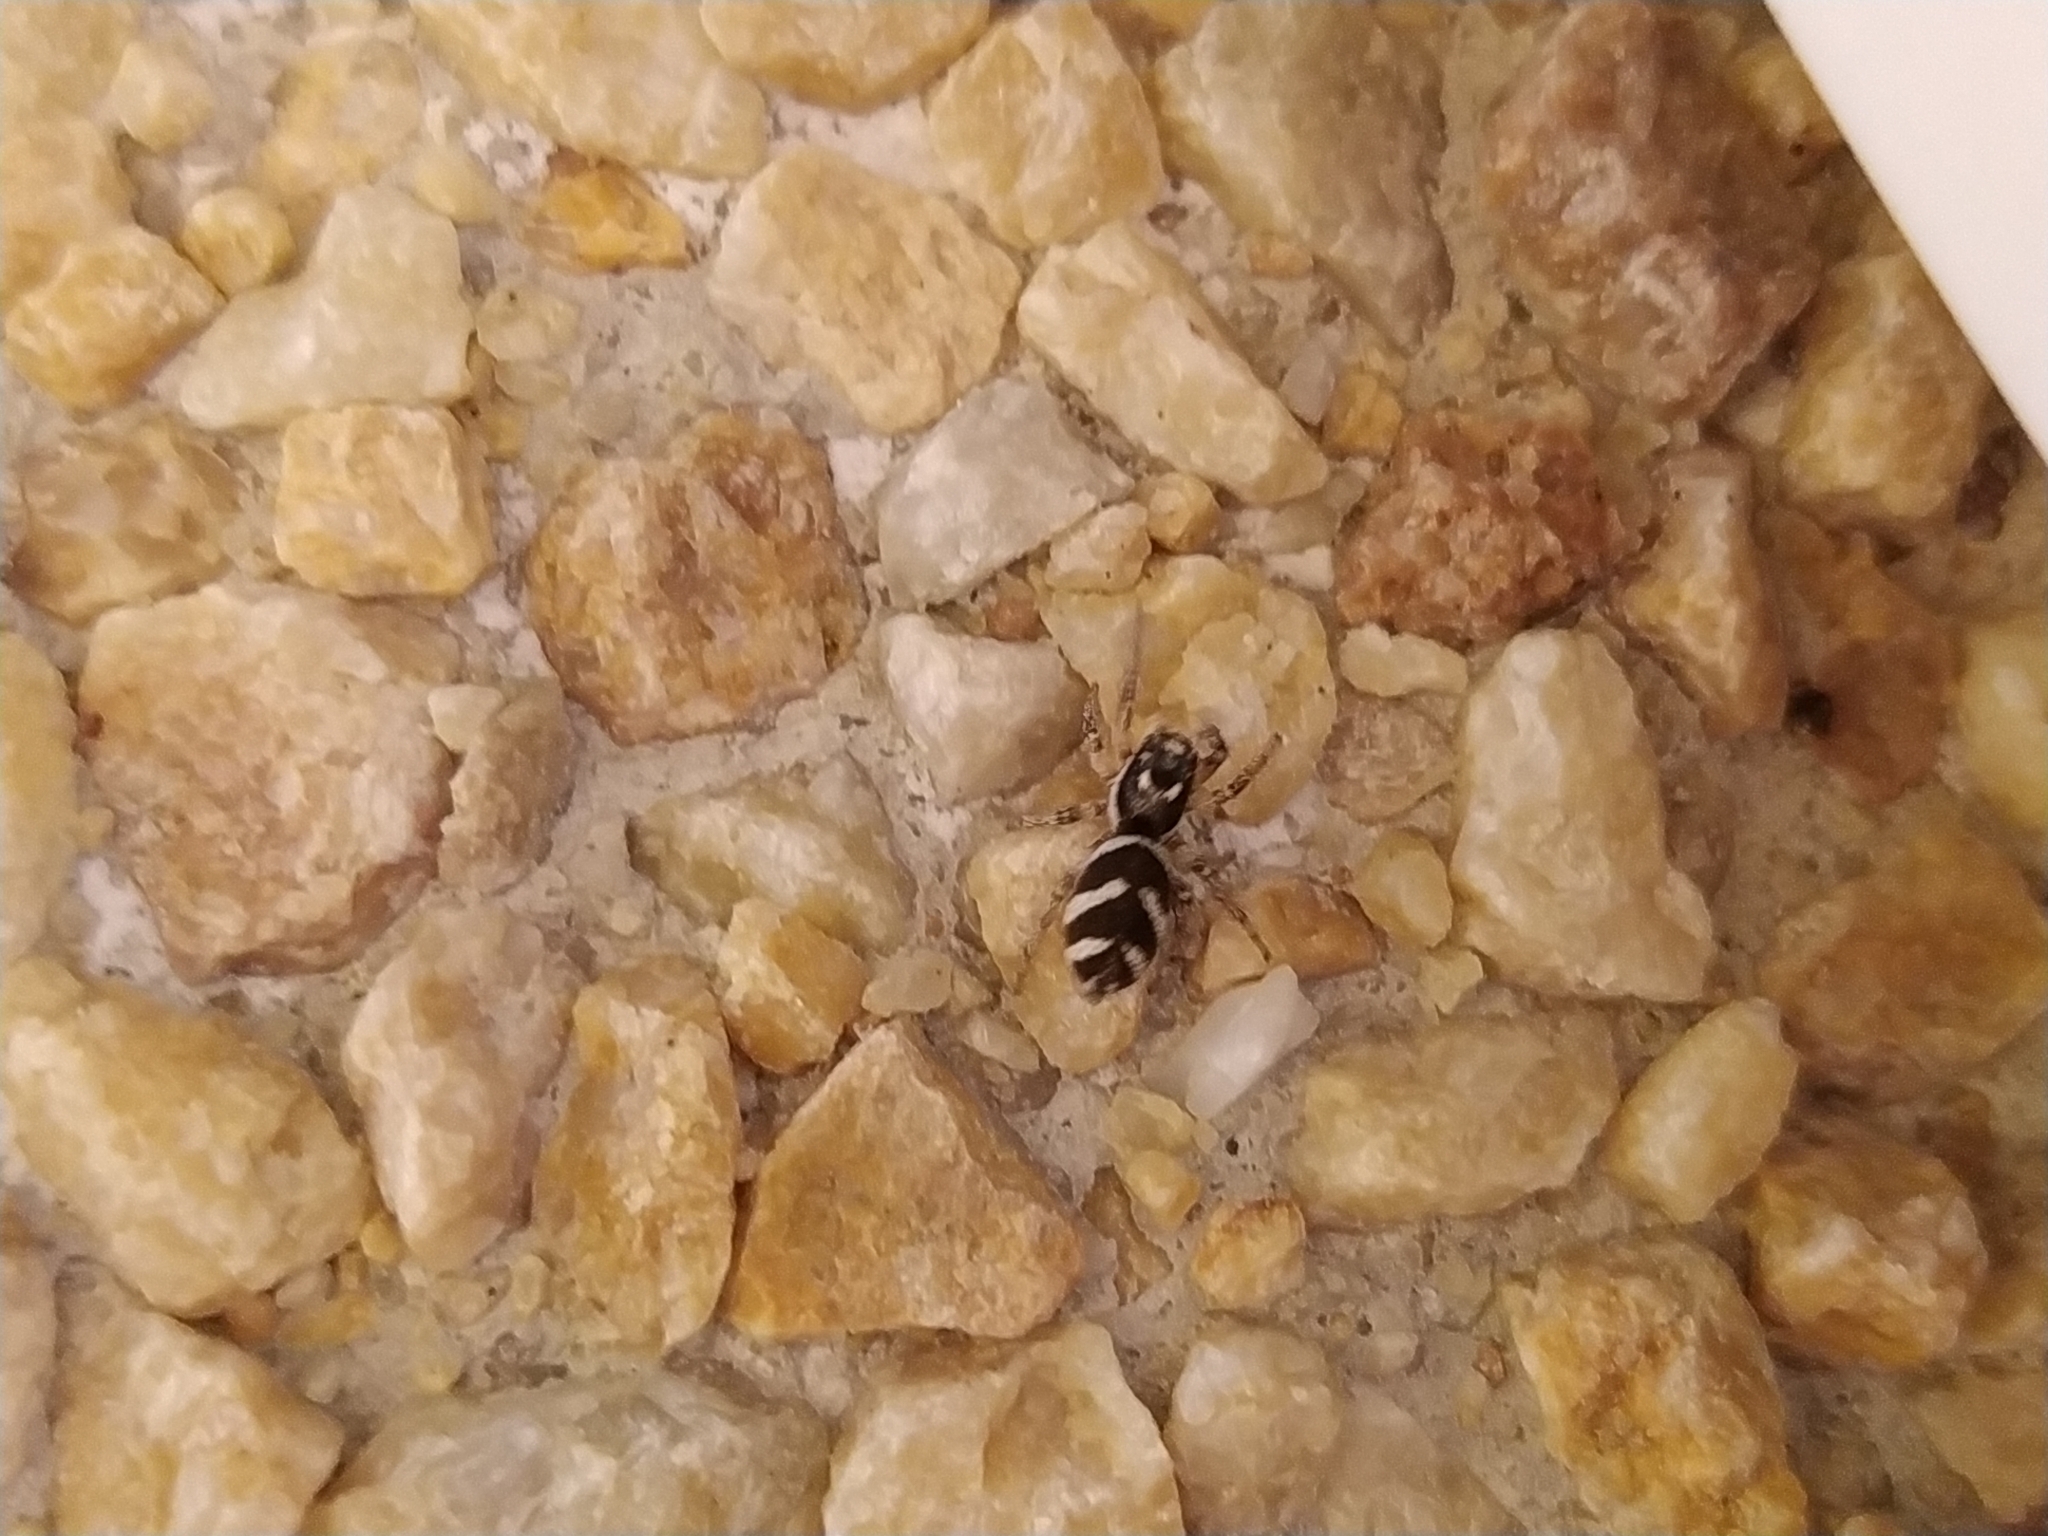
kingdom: Animalia
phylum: Arthropoda
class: Arachnida
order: Araneae
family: Salticidae
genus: Salticus
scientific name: Salticus scenicus
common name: Zebra jumper
